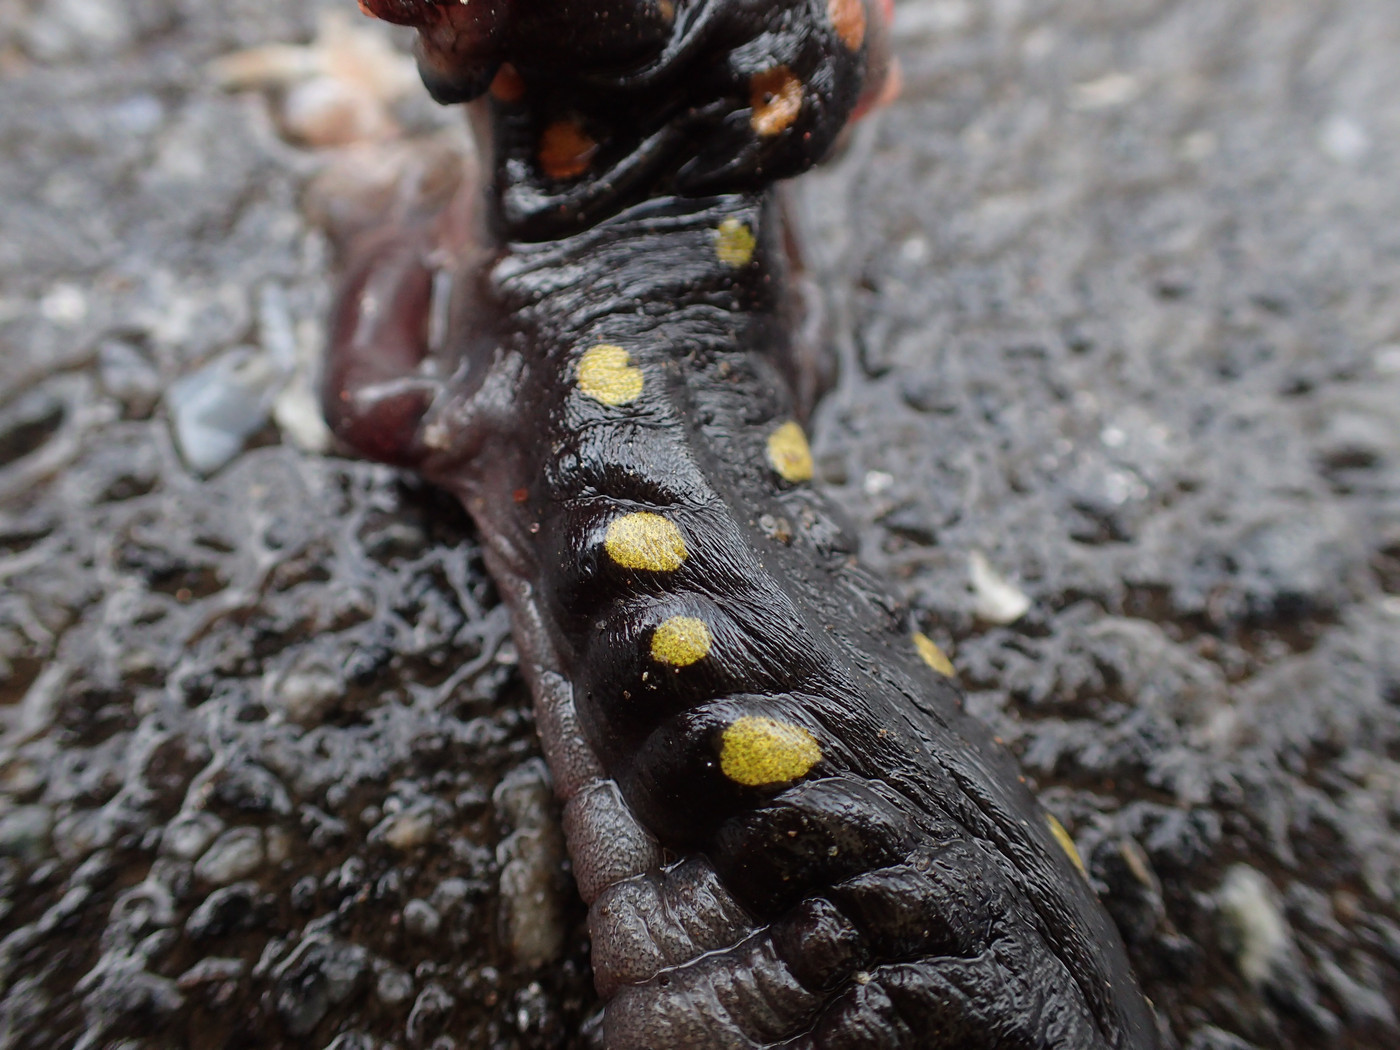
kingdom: Animalia
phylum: Chordata
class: Amphibia
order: Caudata
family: Ambystomatidae
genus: Ambystoma
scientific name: Ambystoma maculatum
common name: Spotted salamander
